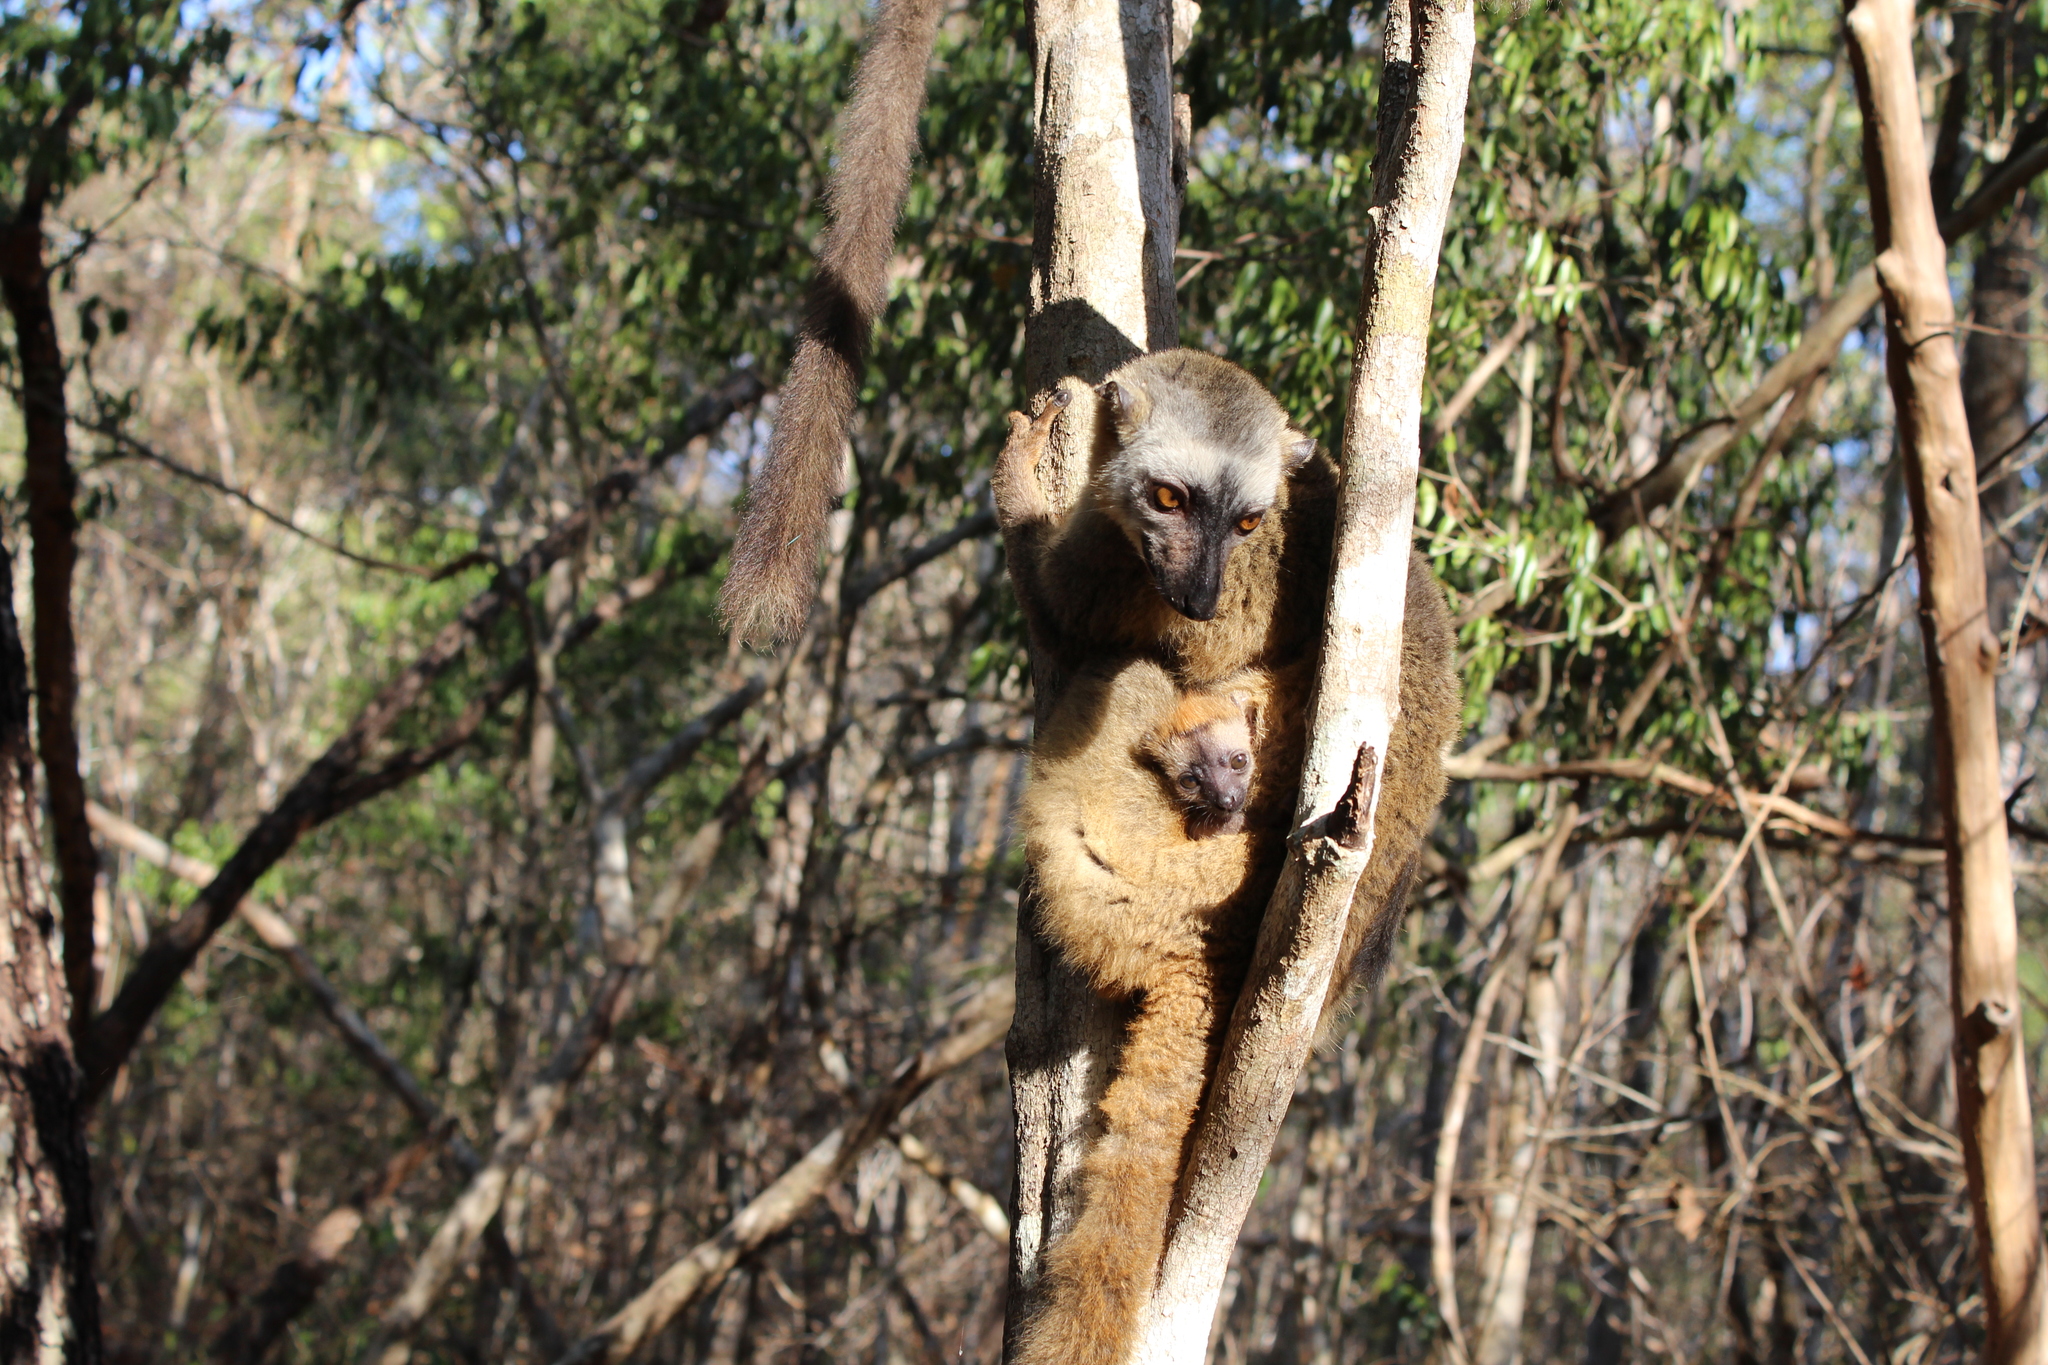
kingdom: Animalia
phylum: Chordata
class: Mammalia
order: Primates
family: Lemuridae
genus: Eulemur
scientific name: Eulemur rufifrons
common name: Red-fronted brown lemur
